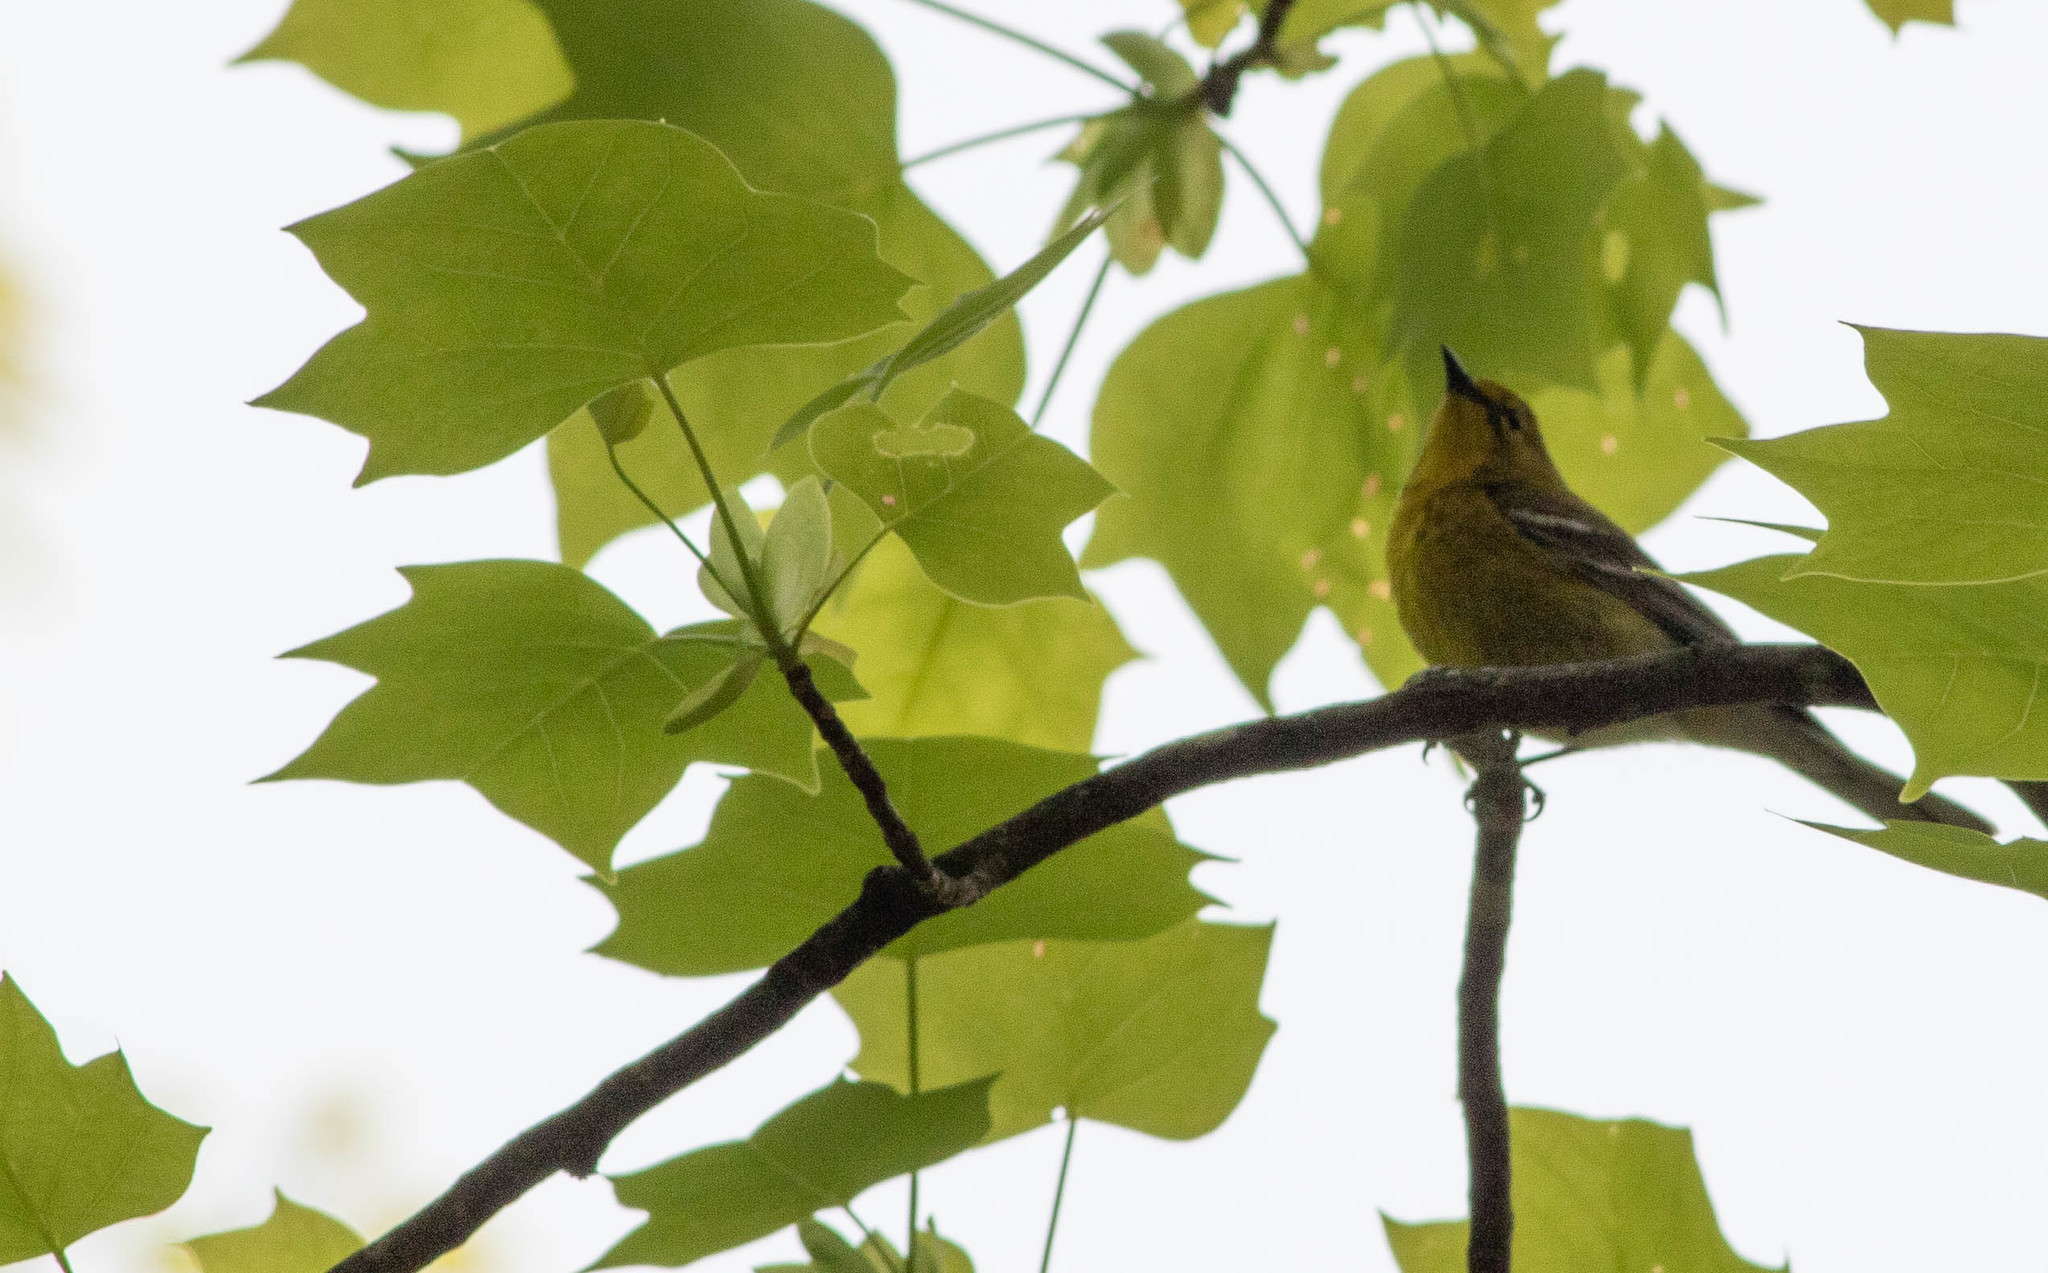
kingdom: Animalia
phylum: Chordata
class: Aves
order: Passeriformes
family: Parulidae
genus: Setophaga
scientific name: Setophaga pinus
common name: Pine warbler
